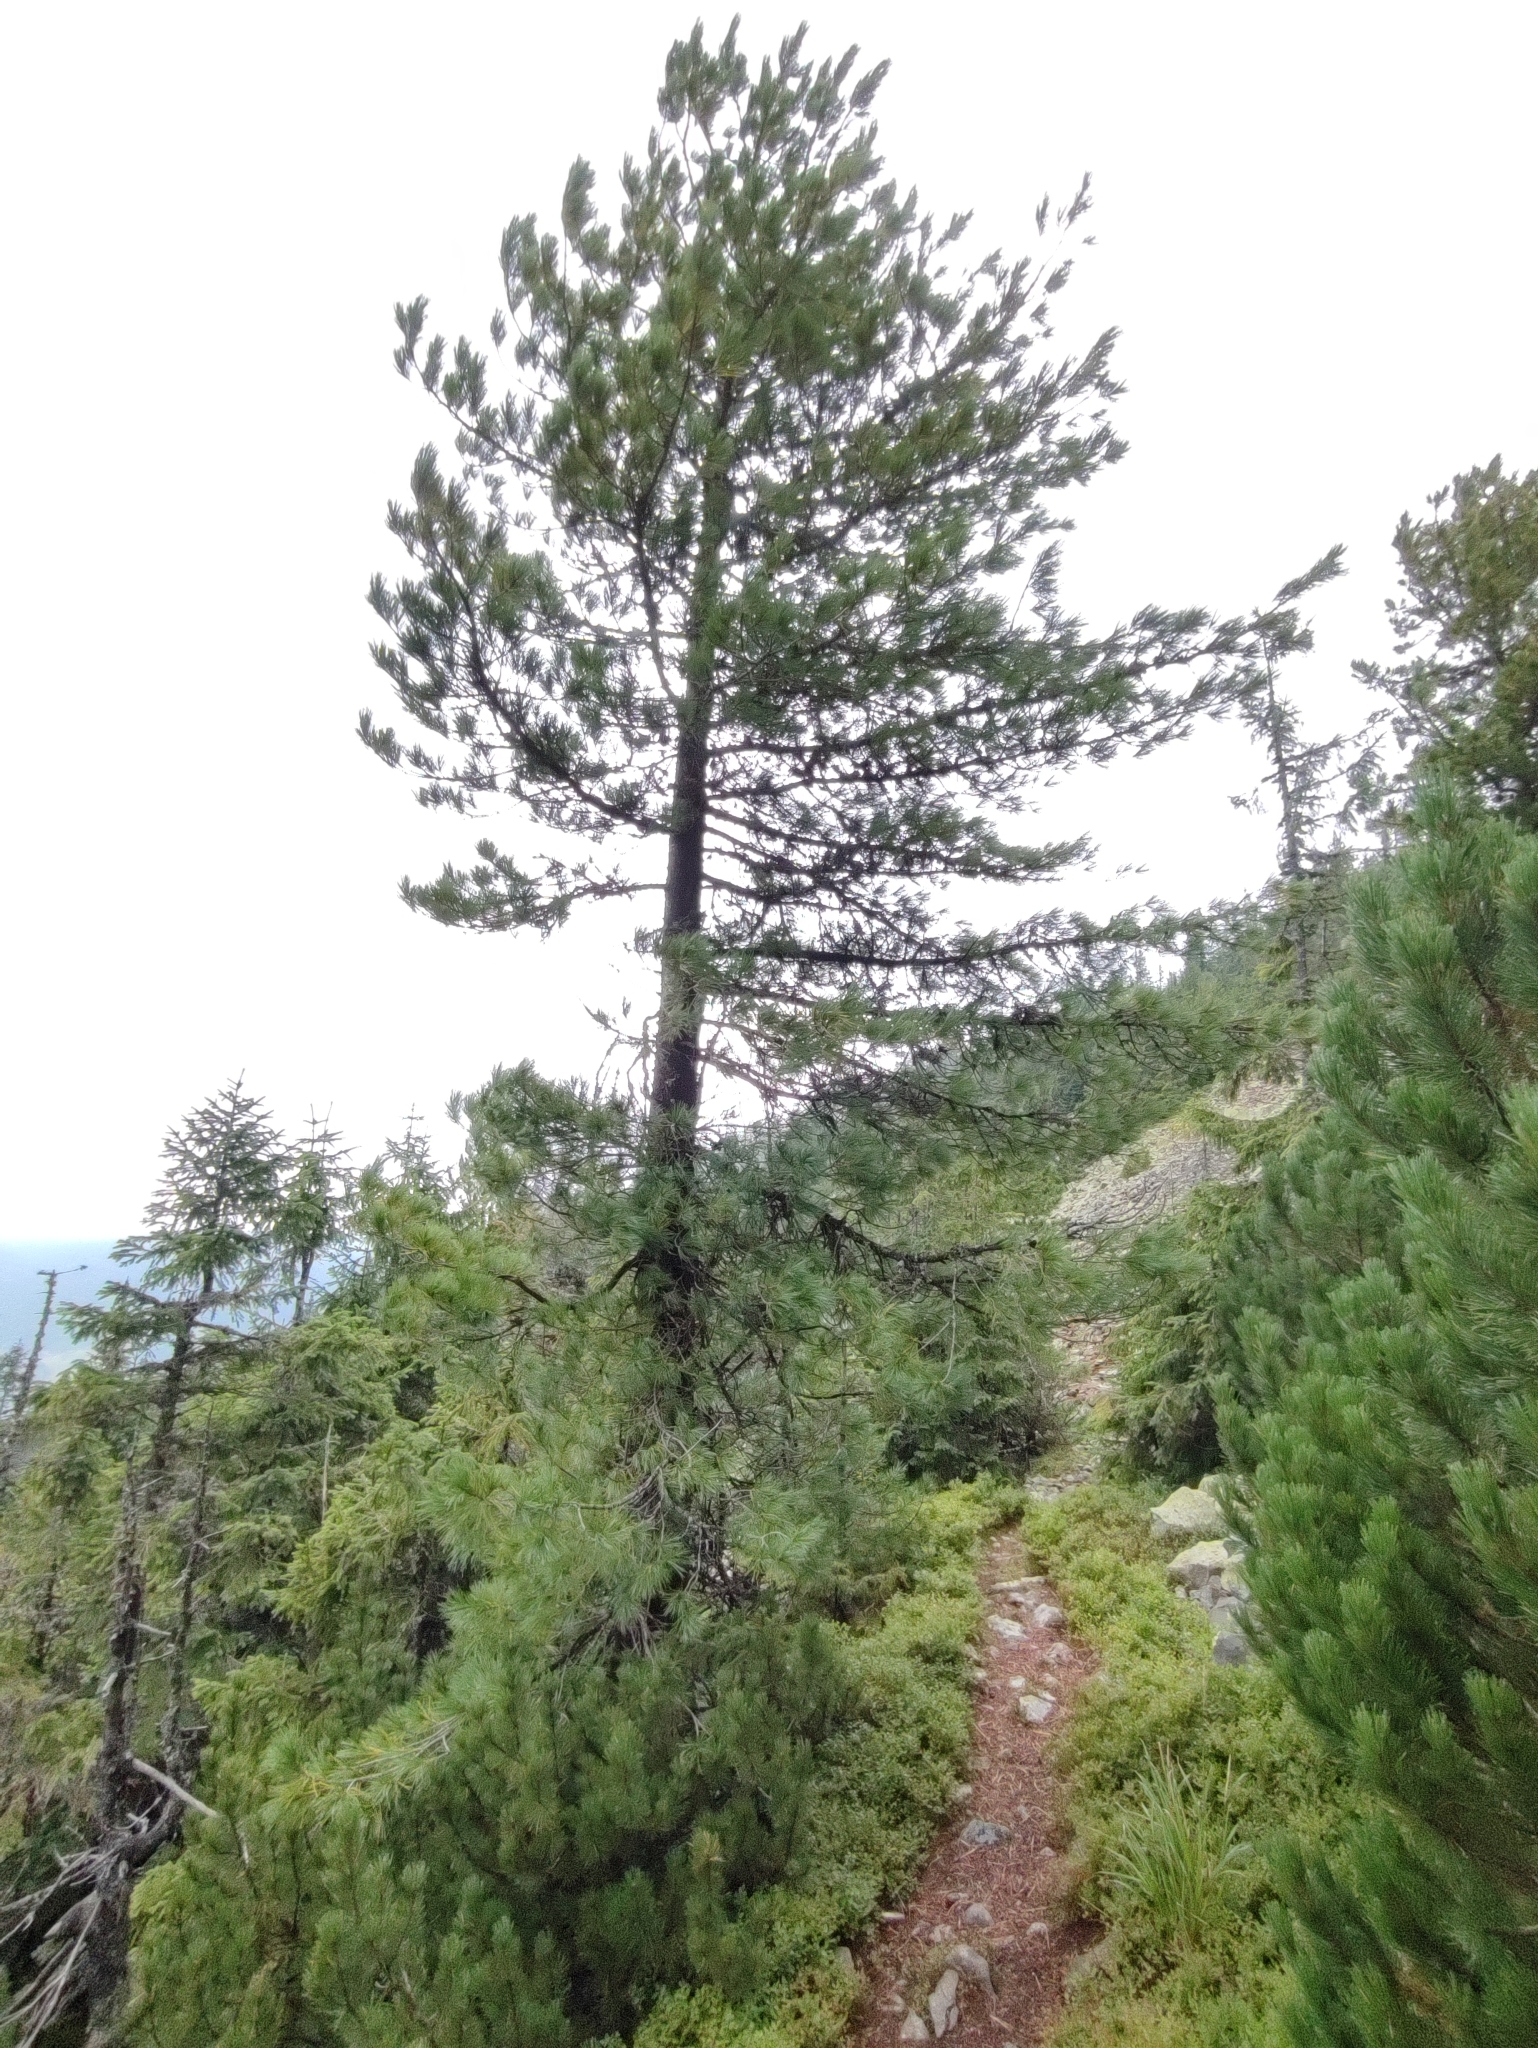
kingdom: Plantae
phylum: Tracheophyta
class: Pinopsida
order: Pinales
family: Pinaceae
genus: Pinus
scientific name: Pinus cembra
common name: Arolla pine
